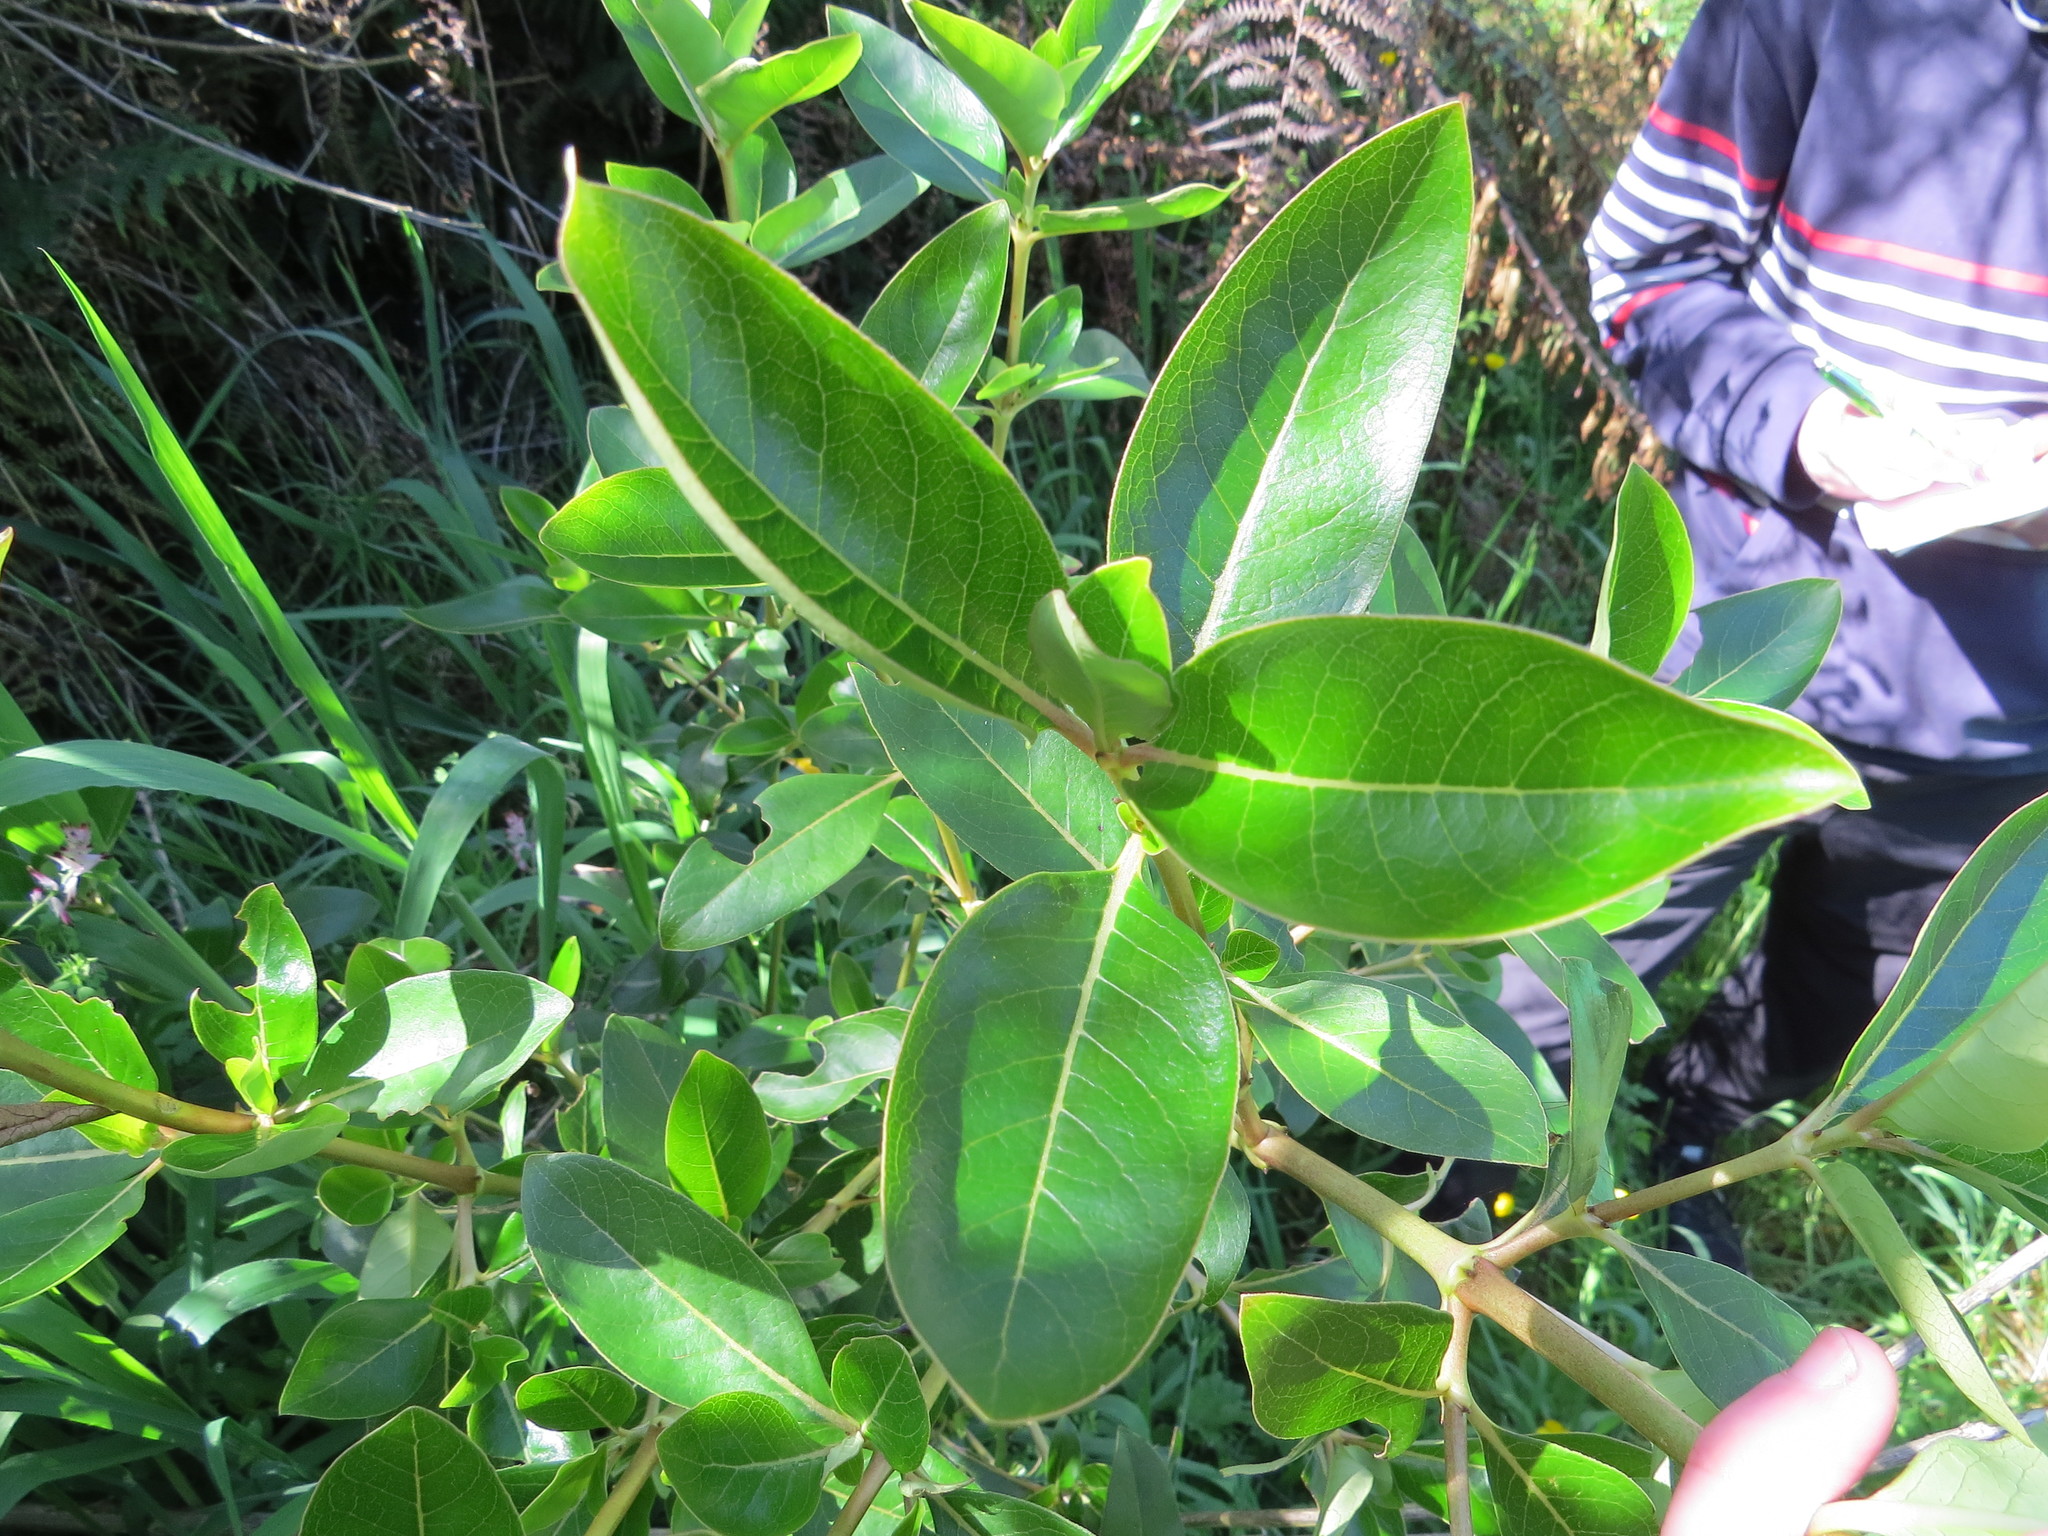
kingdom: Plantae
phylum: Tracheophyta
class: Magnoliopsida
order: Gentianales
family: Rubiaceae
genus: Coprosma
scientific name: Coprosma robusta
